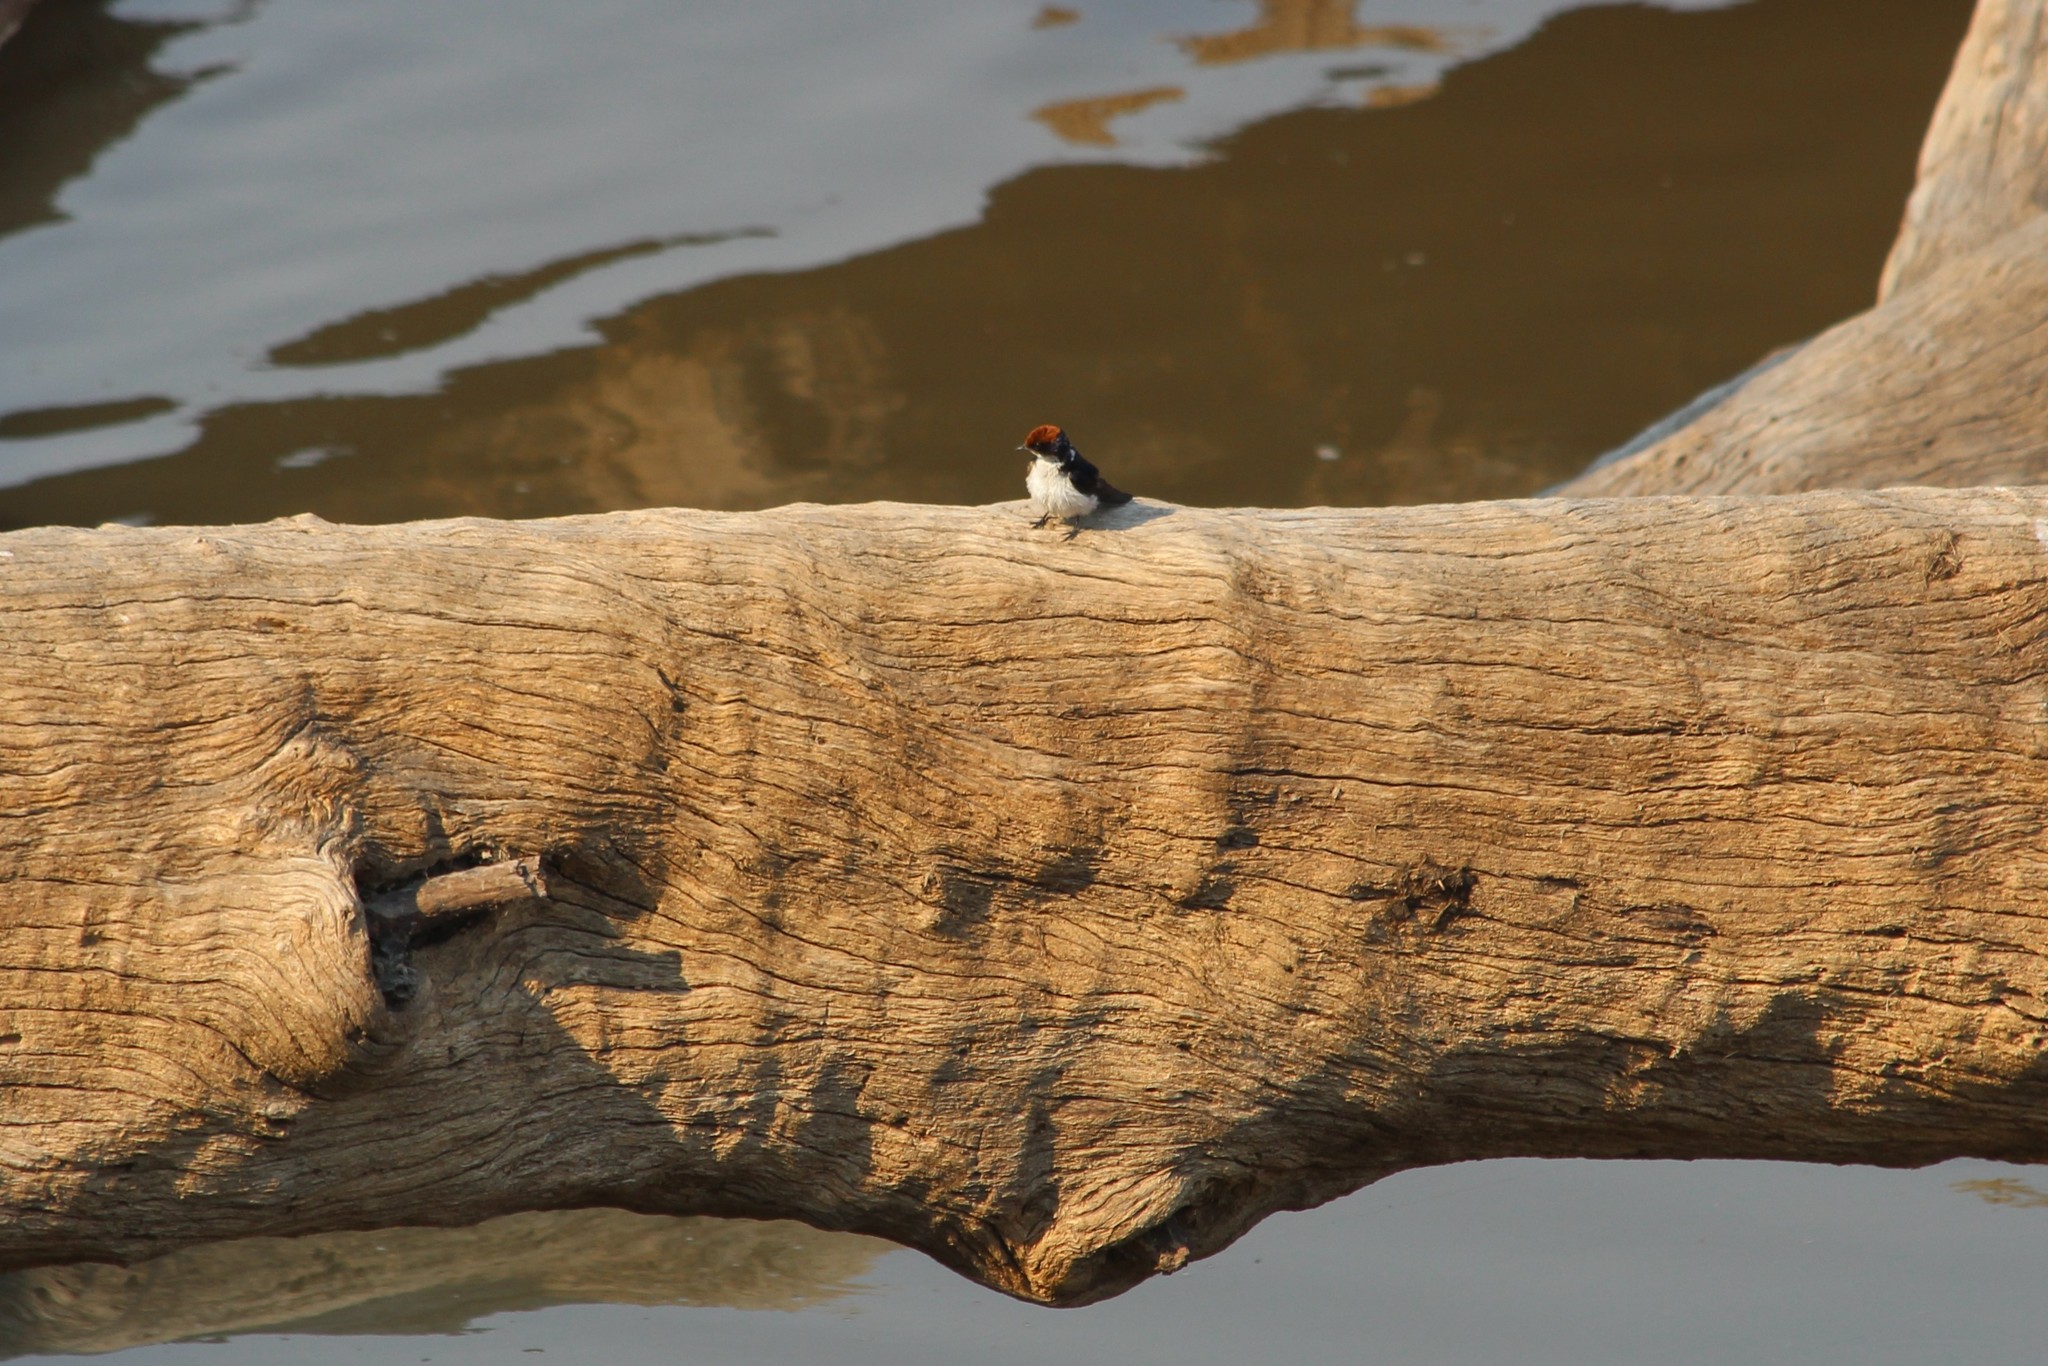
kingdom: Animalia
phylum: Chordata
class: Aves
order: Passeriformes
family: Hirundinidae
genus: Hirundo
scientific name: Hirundo smithii
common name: Wire-tailed swallow
